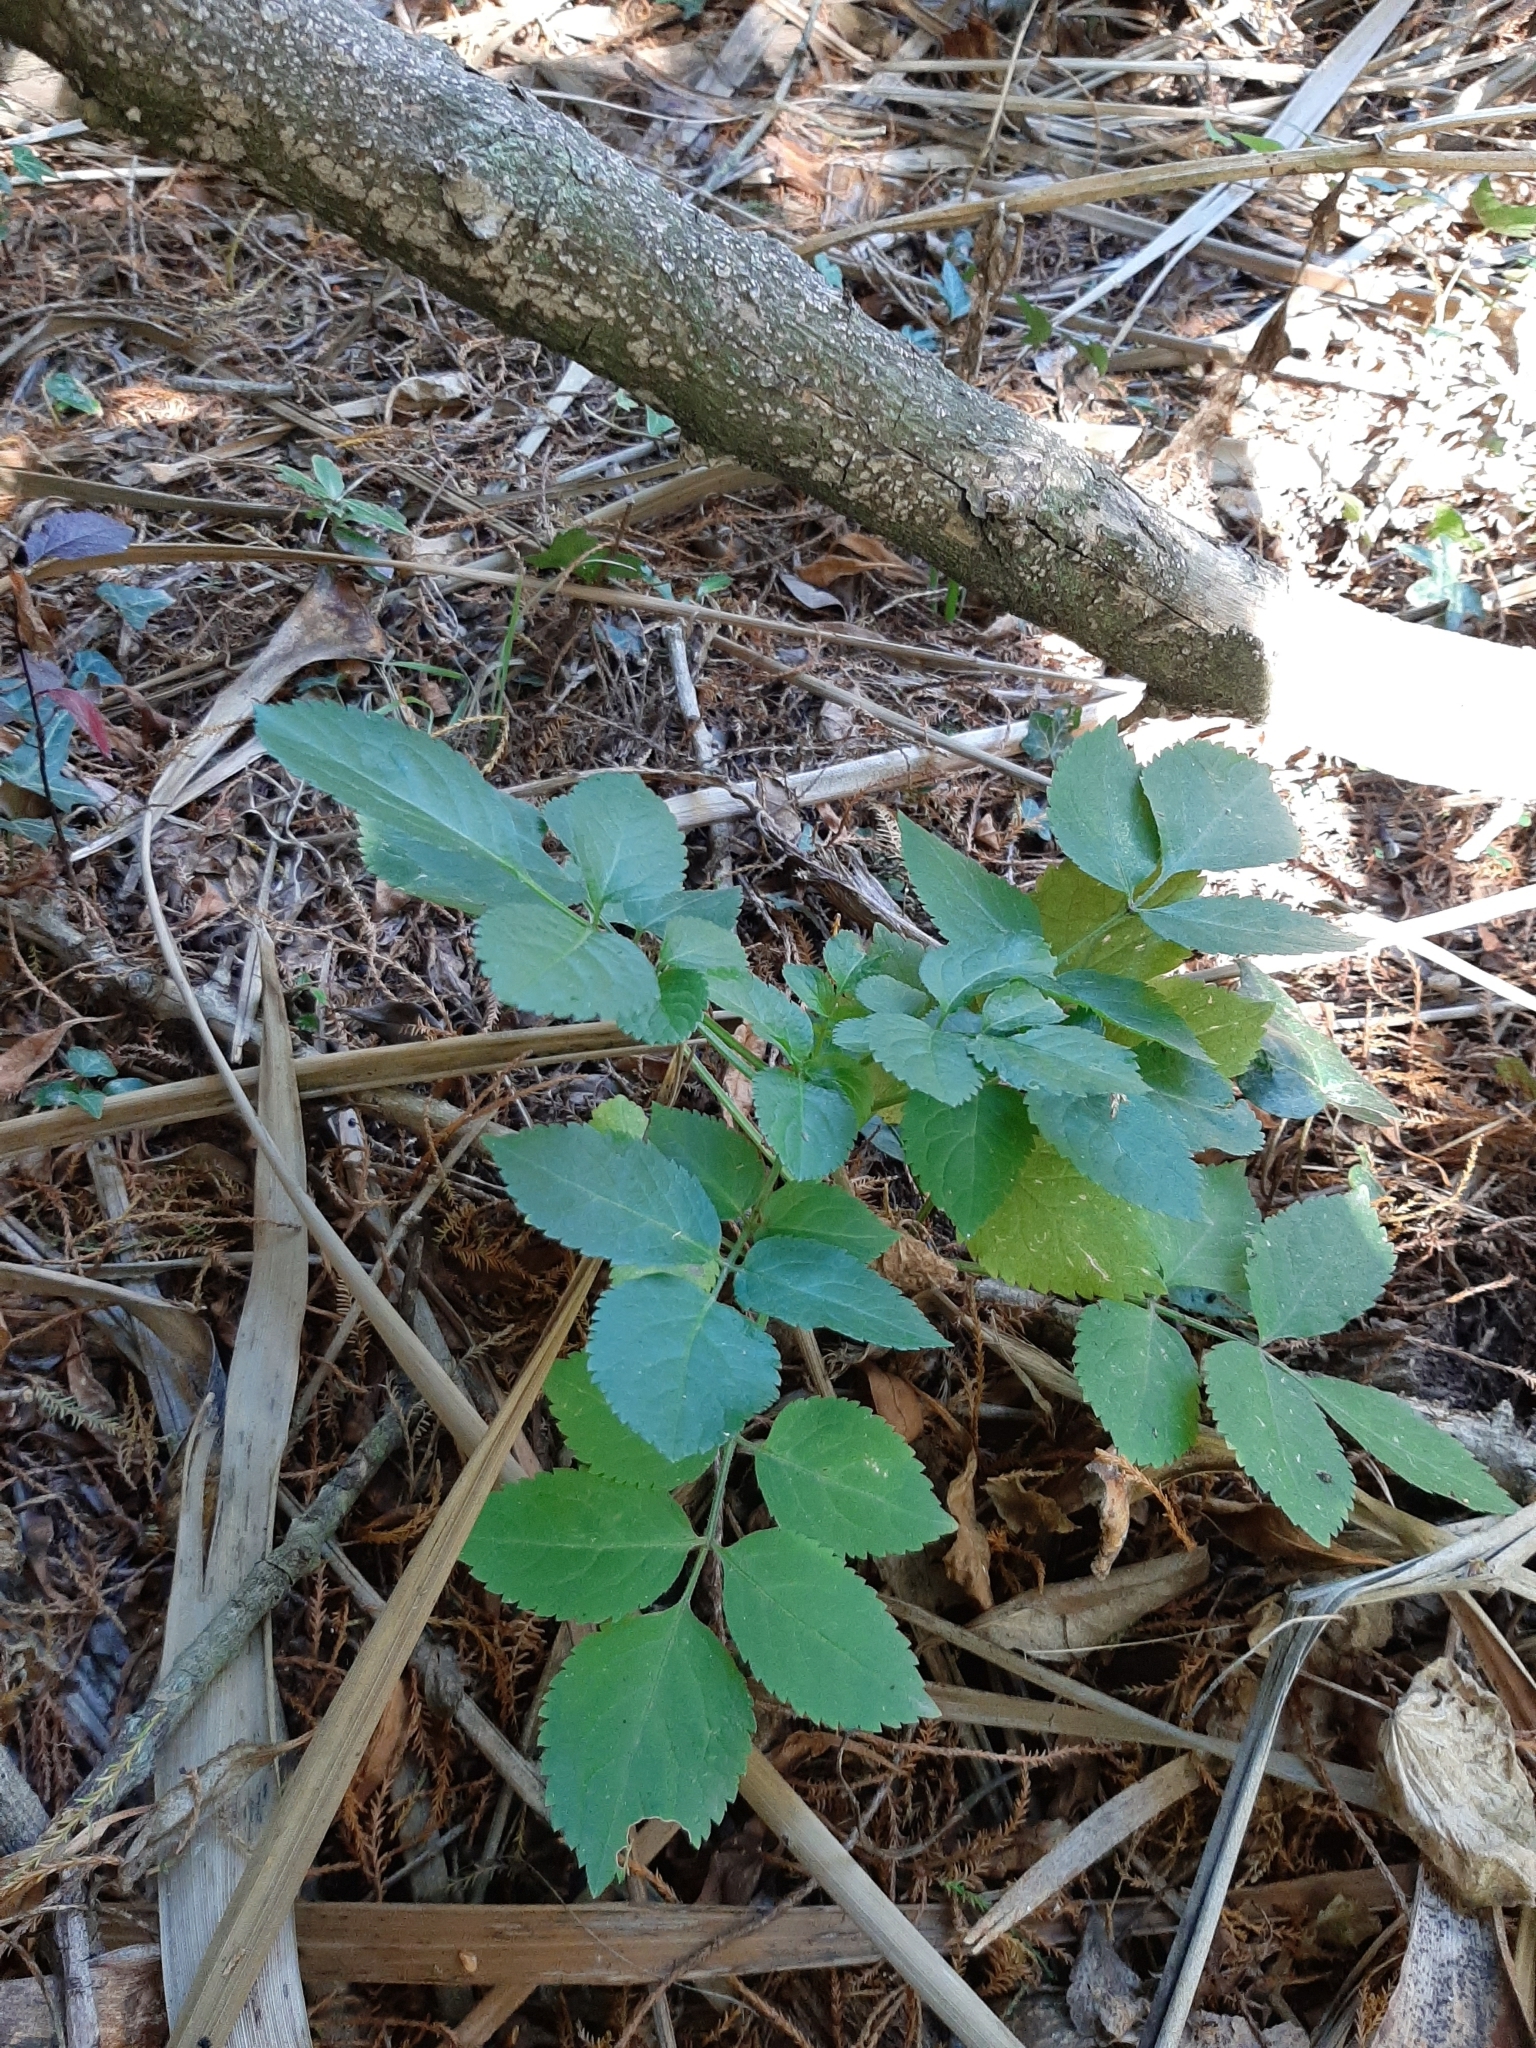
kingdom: Plantae
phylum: Tracheophyta
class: Magnoliopsida
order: Dipsacales
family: Viburnaceae
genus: Sambucus
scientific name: Sambucus nigra
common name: Elder
